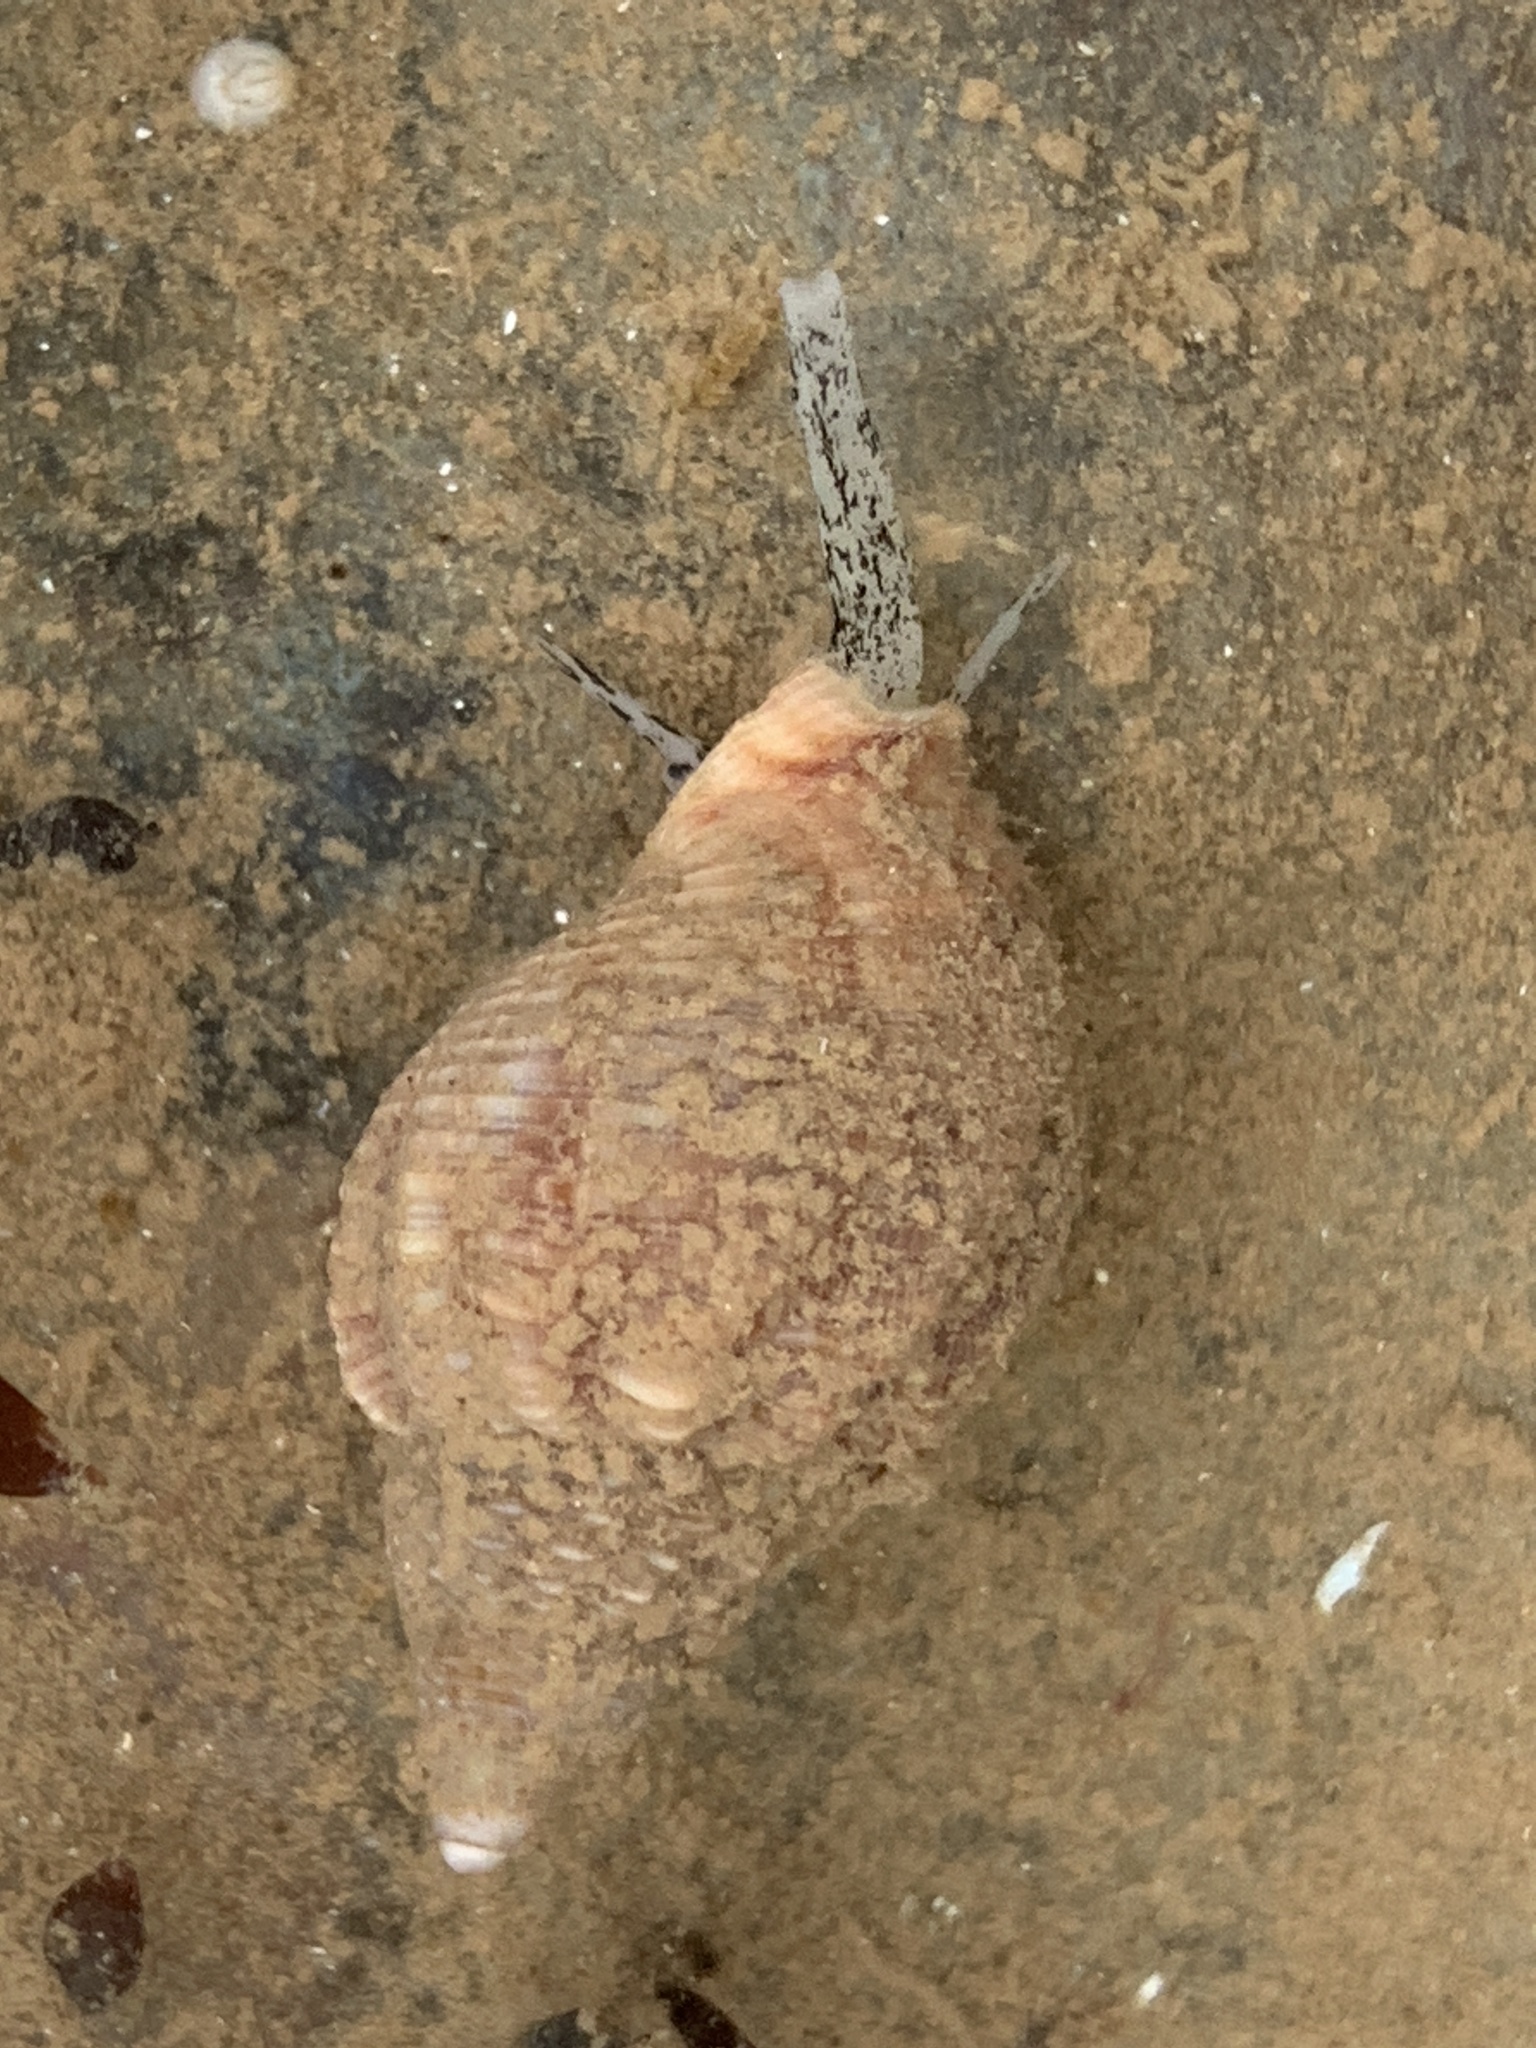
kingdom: Animalia
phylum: Mollusca
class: Gastropoda
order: Neogastropoda
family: Buccinidae
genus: Buccinum
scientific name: Buccinum undatum
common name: Common whelk
